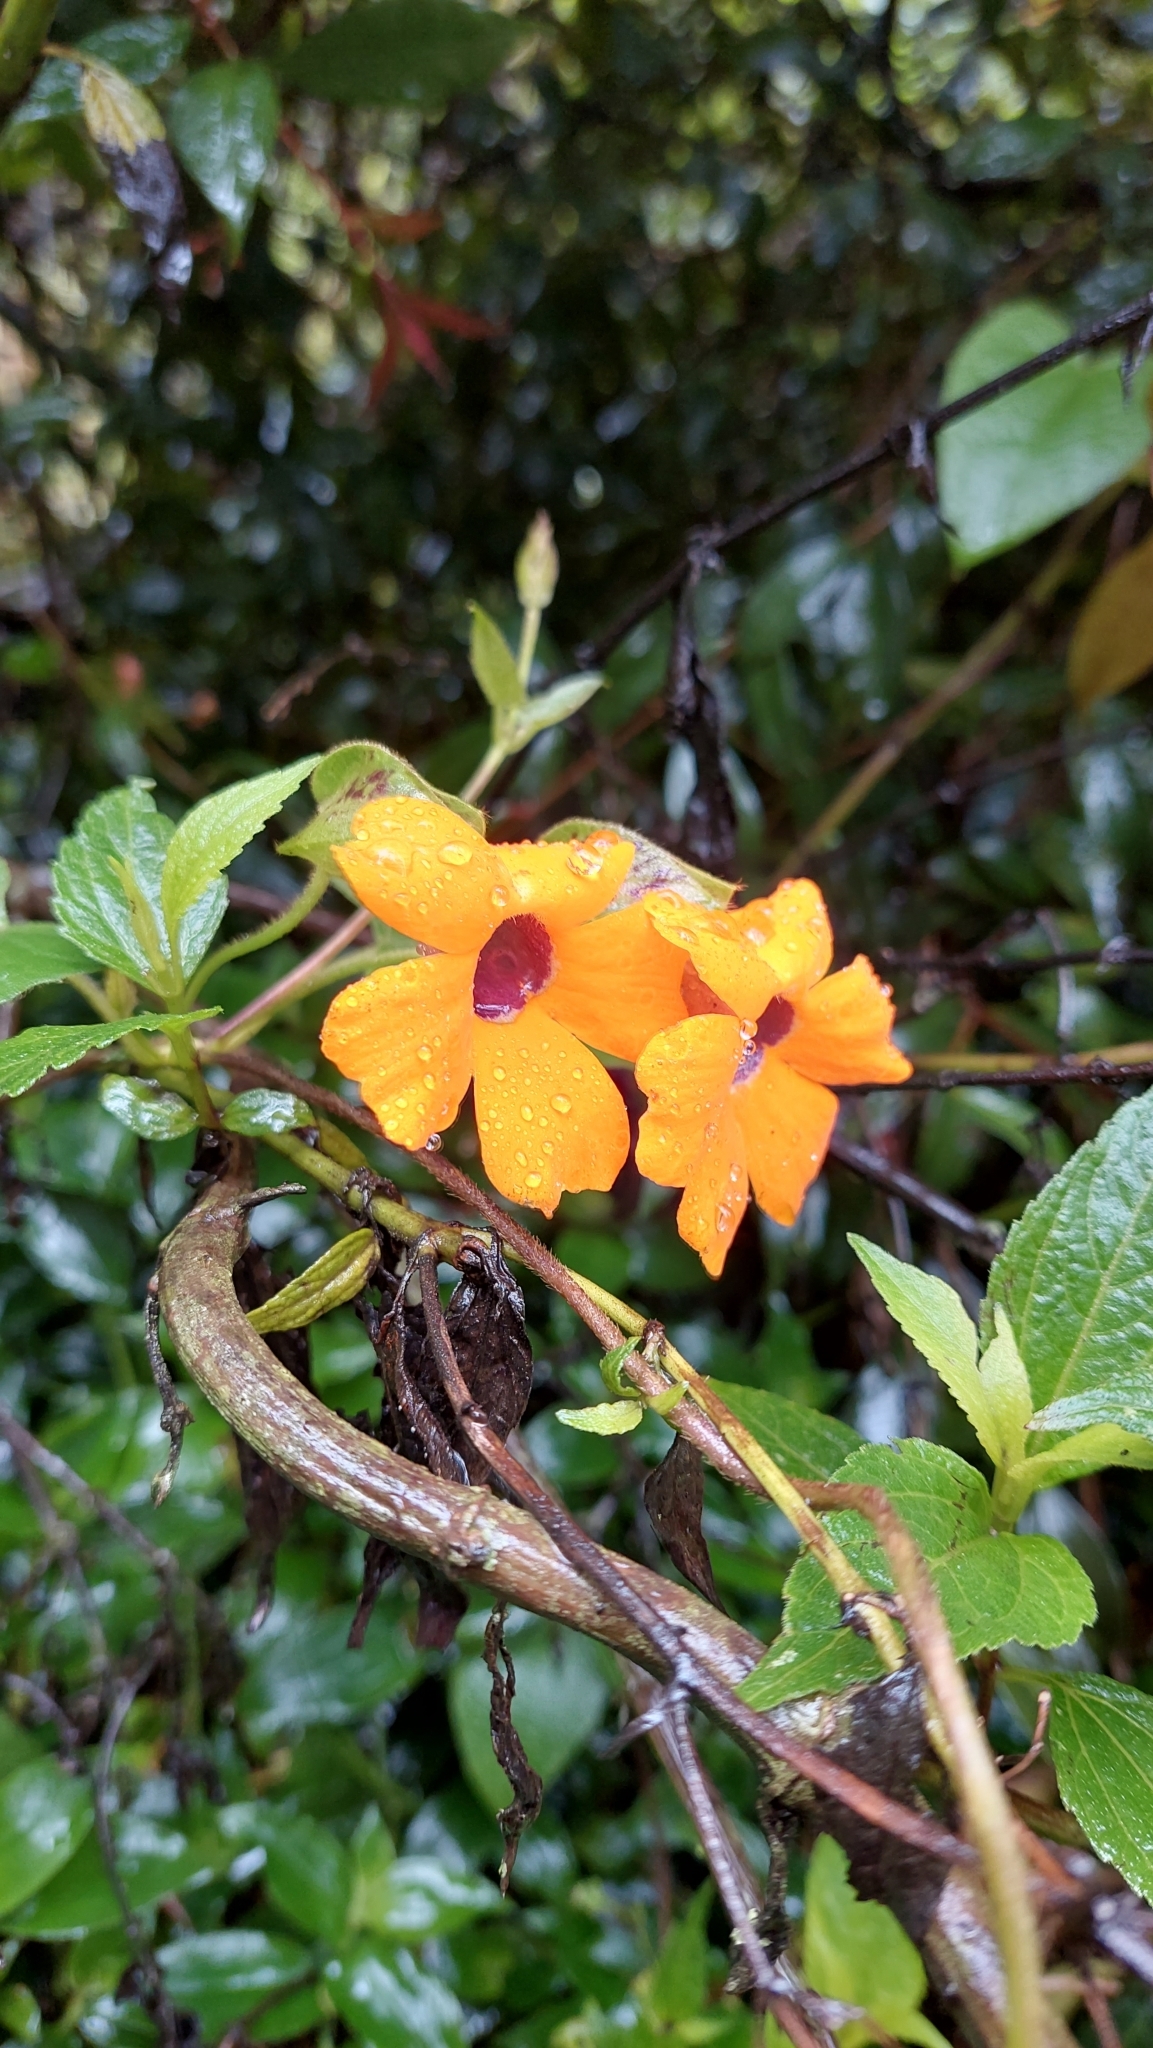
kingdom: Plantae
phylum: Tracheophyta
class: Magnoliopsida
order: Lamiales
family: Acanthaceae
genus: Thunbergia
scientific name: Thunbergia alata
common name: Blackeyed susan vine
